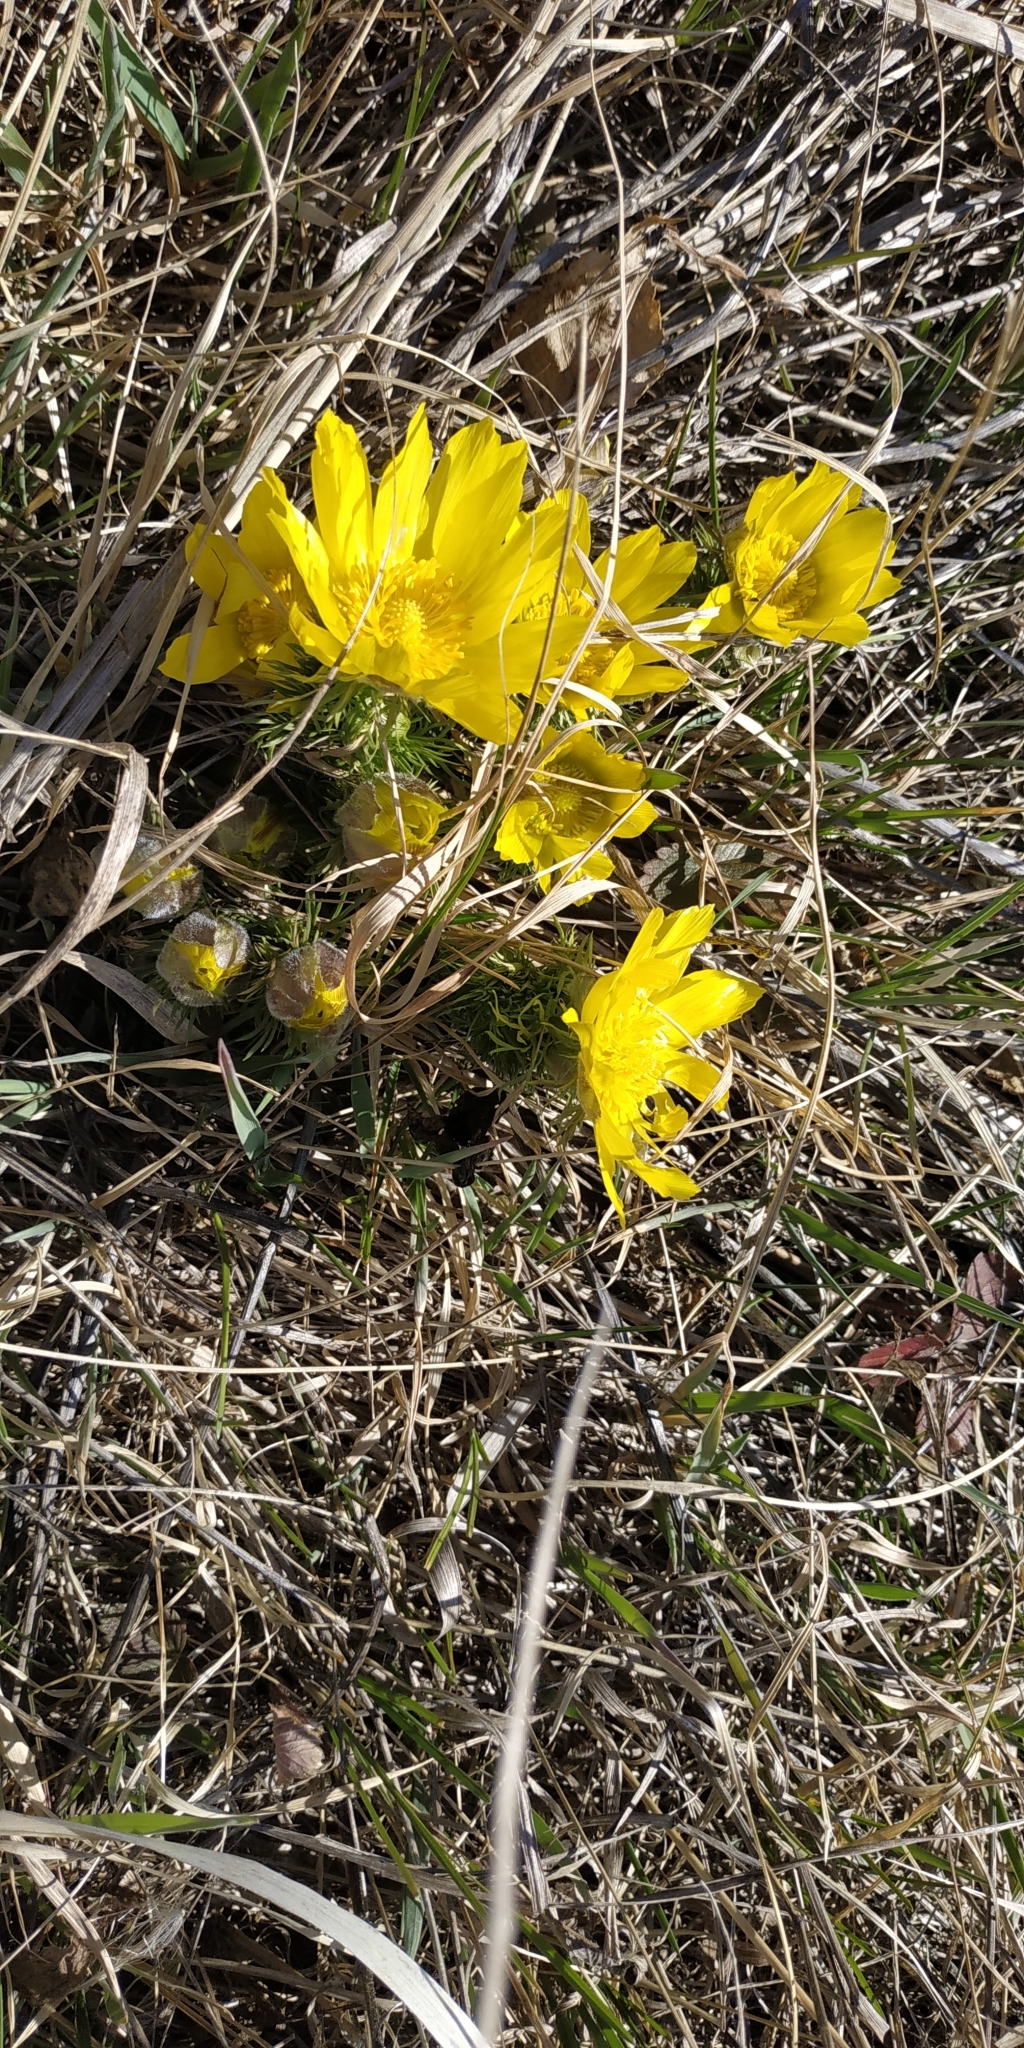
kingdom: Plantae
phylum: Tracheophyta
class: Magnoliopsida
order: Ranunculales
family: Ranunculaceae
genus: Adonis
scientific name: Adonis vernalis
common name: Yellow pheasants-eye
